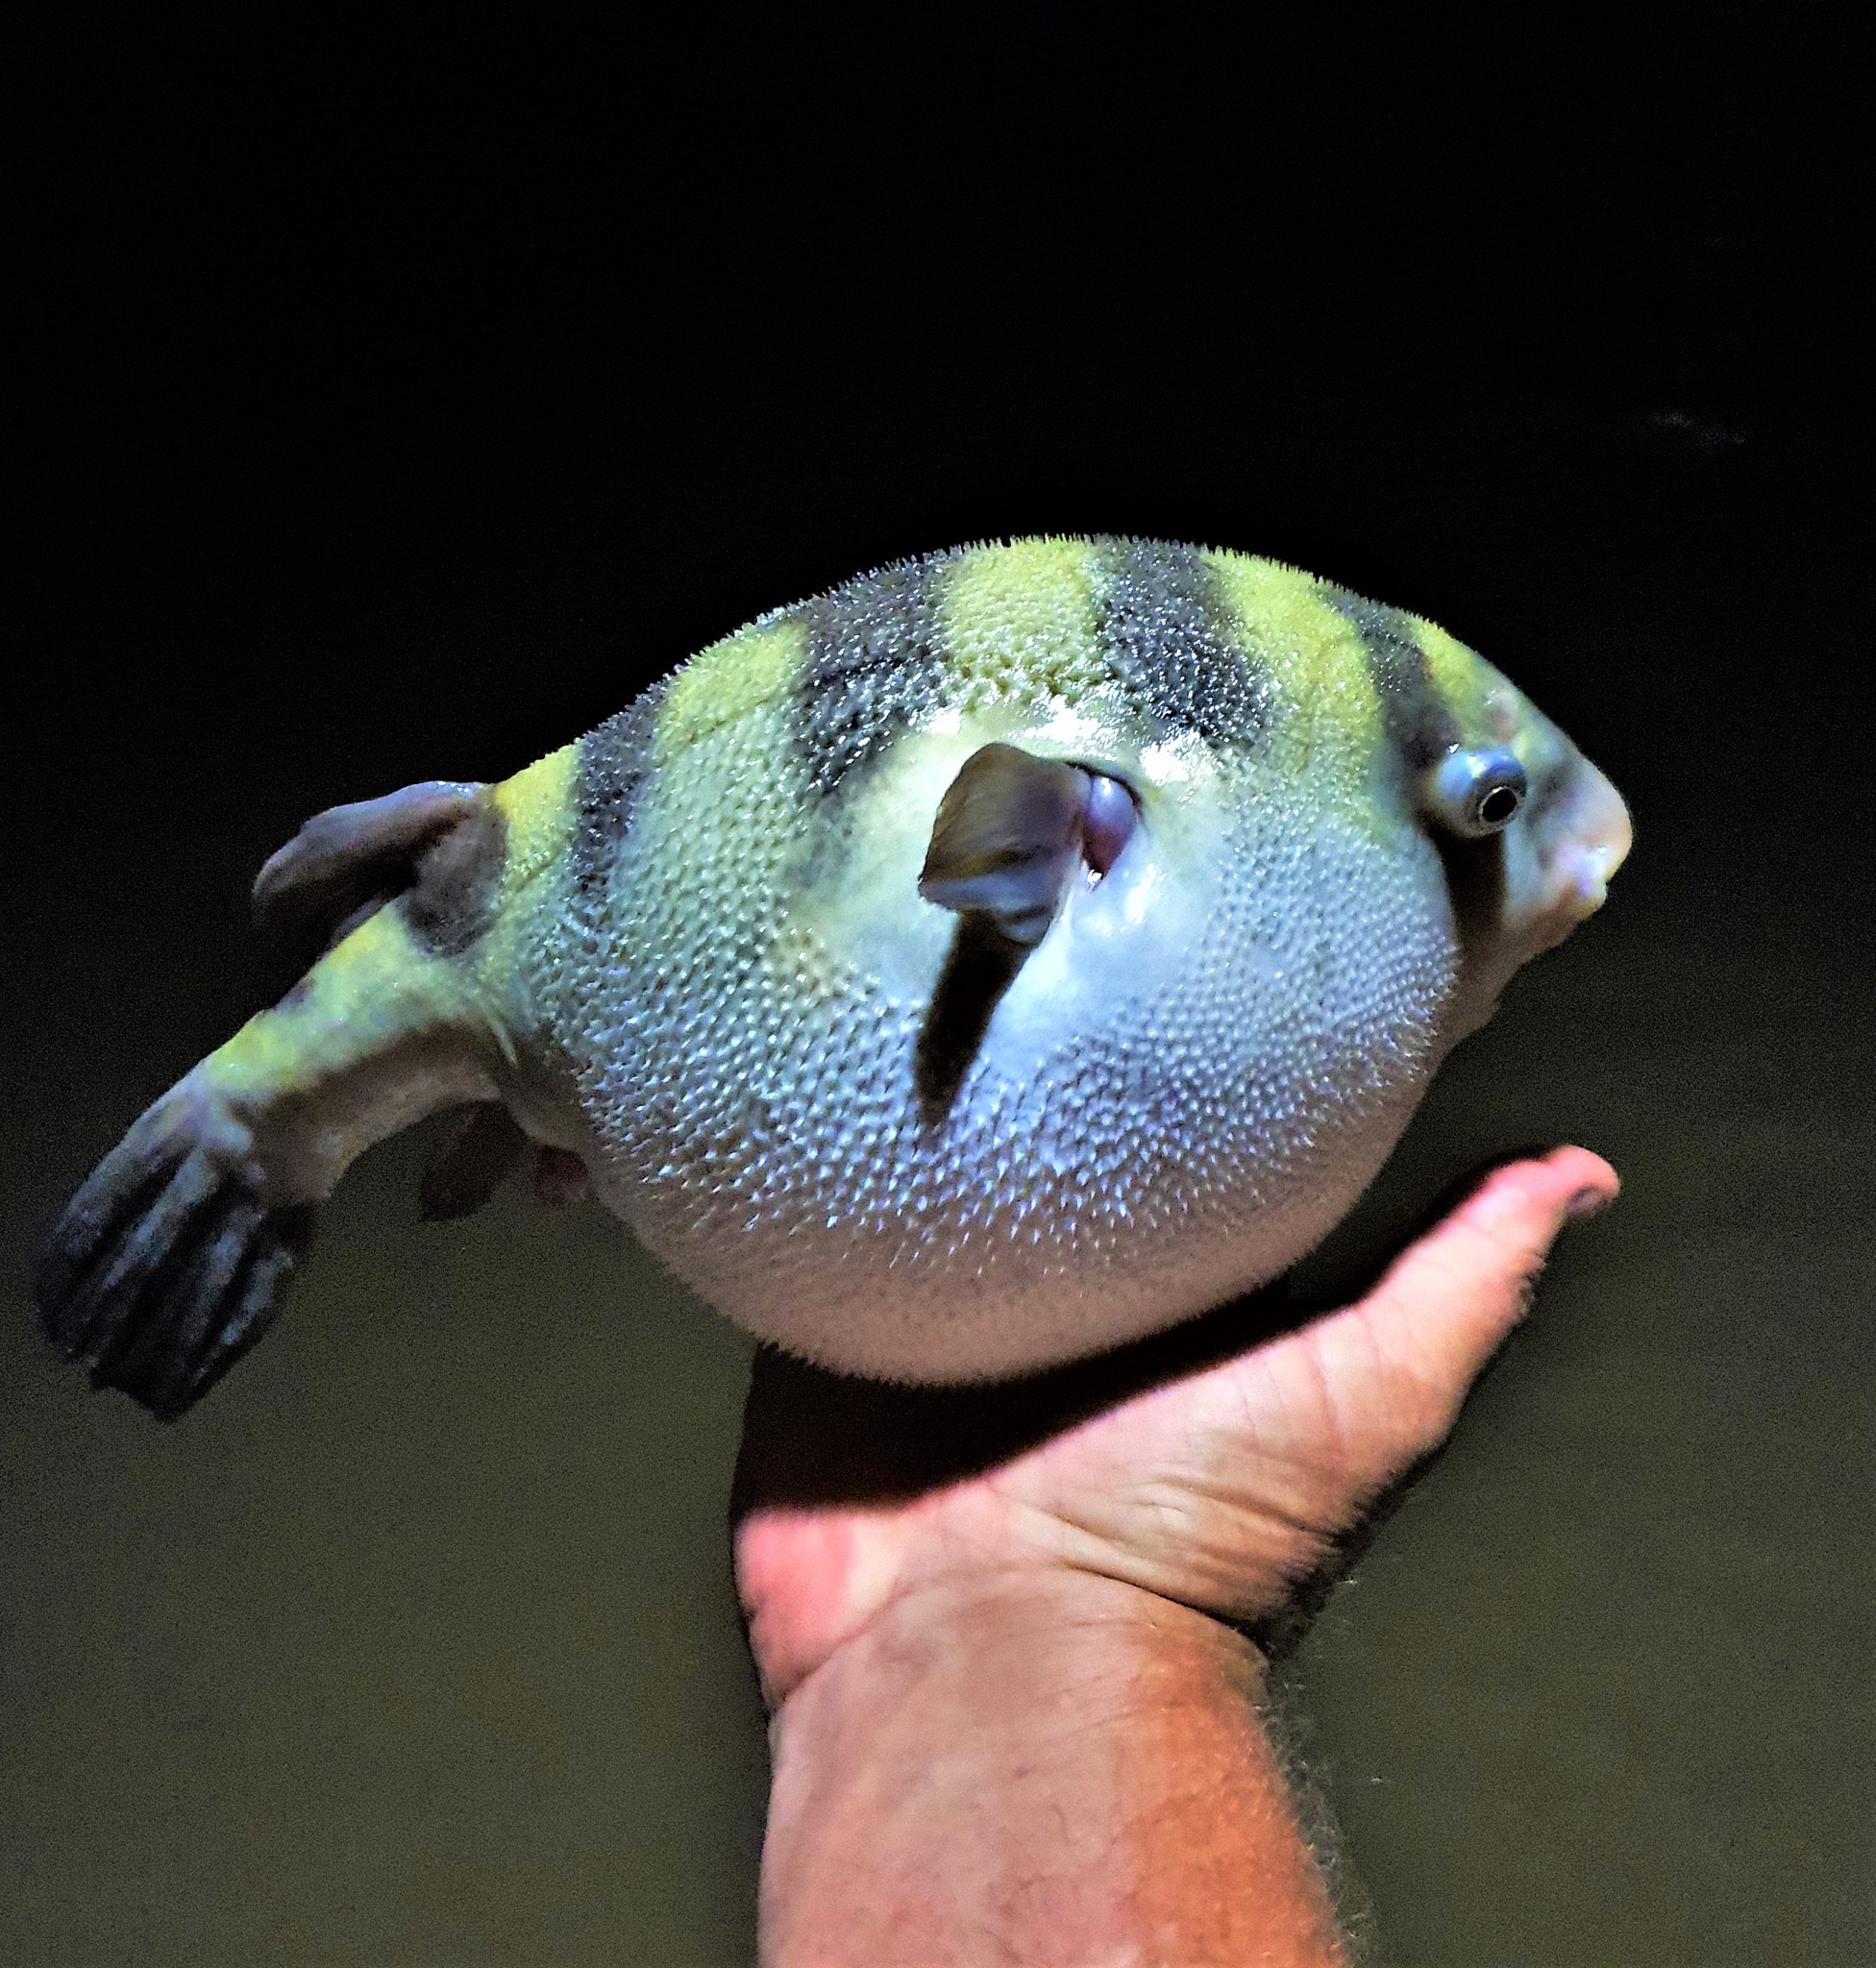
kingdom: Animalia
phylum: Chordata
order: Tetraodontiformes
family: Tetraodontidae
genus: Sphoeroides
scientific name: Sphoeroides
